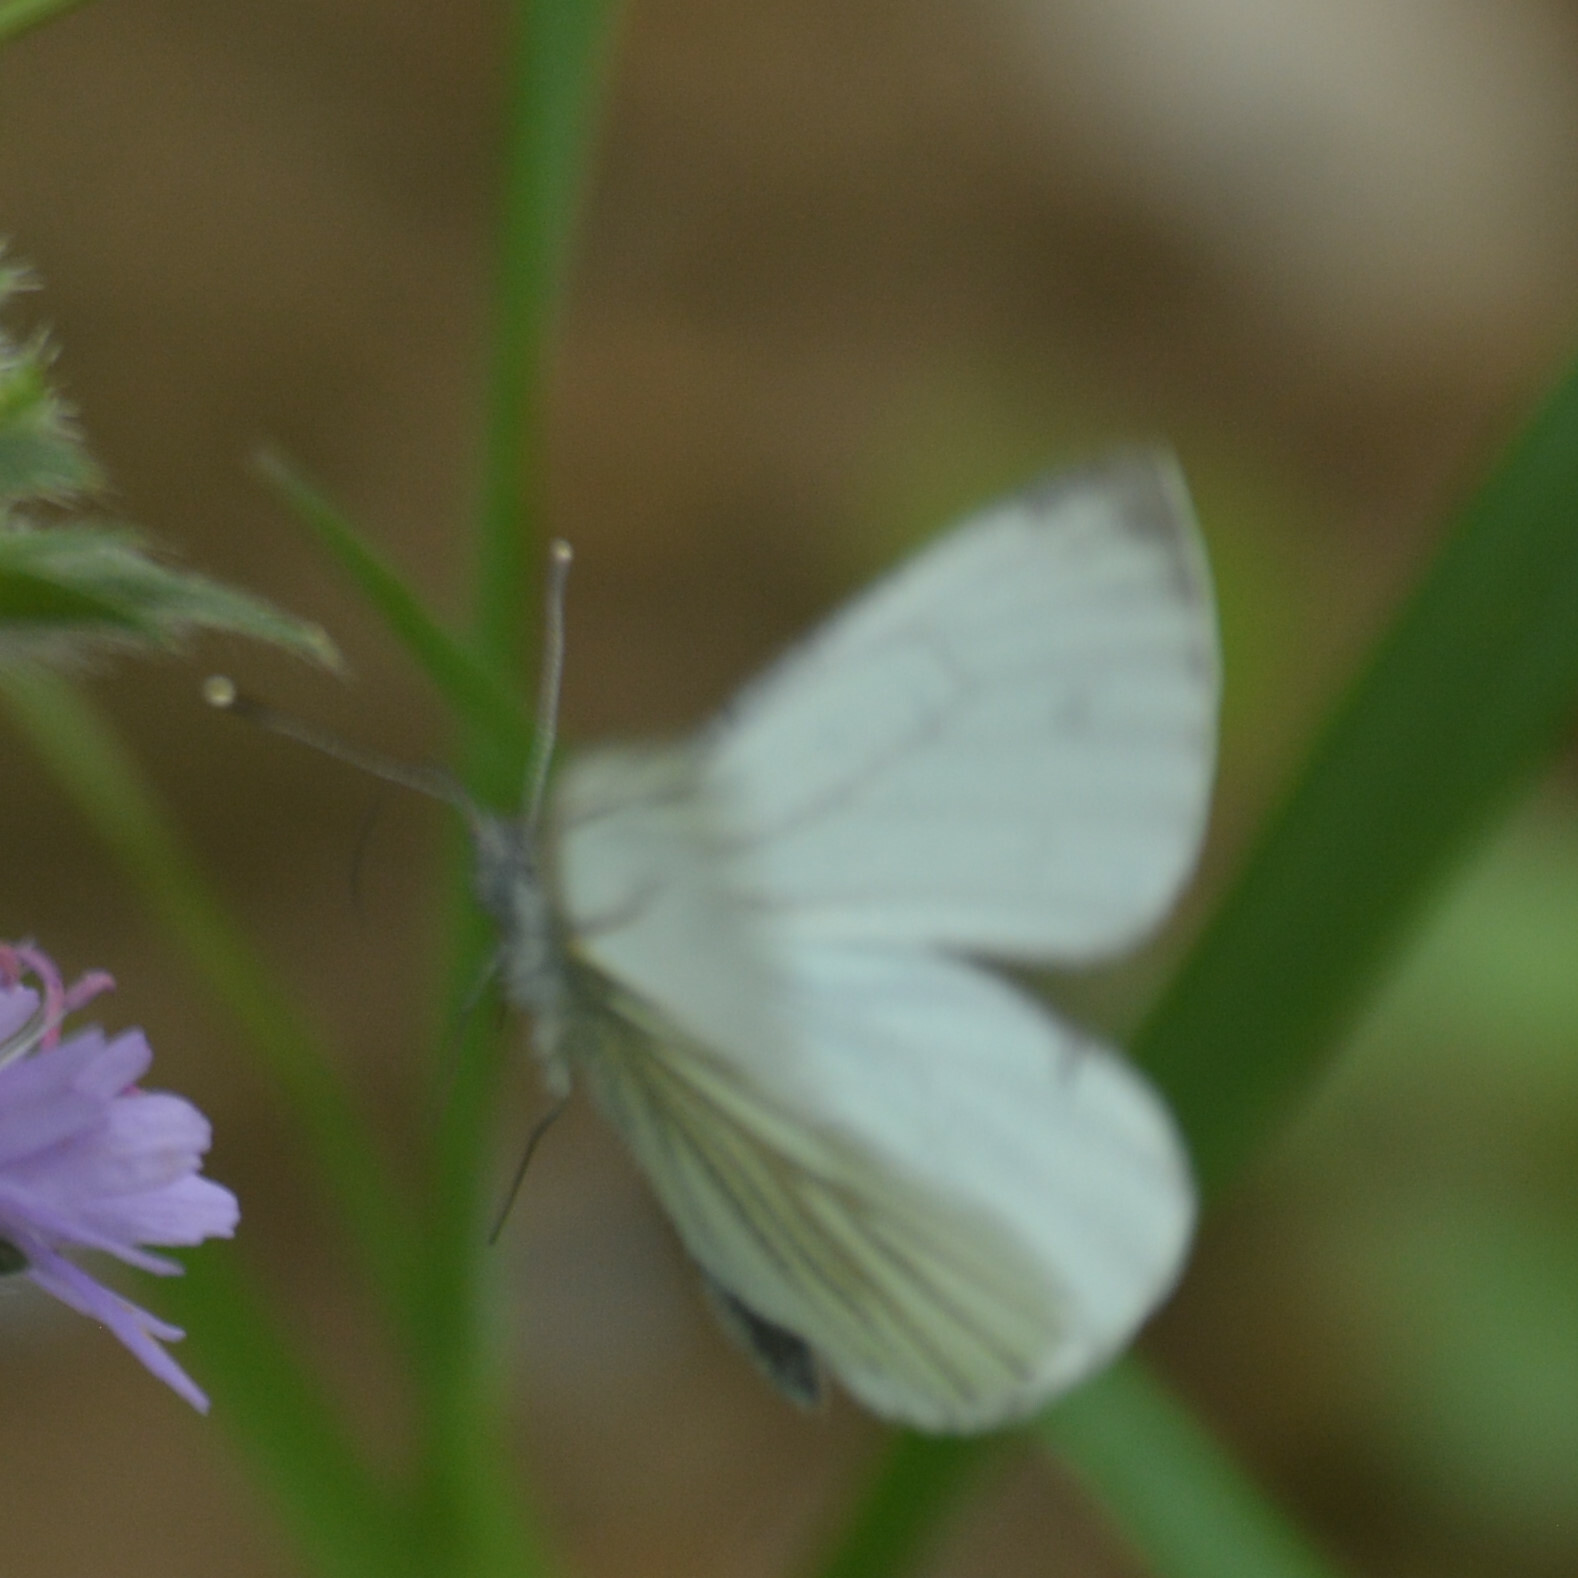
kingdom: Animalia
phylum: Arthropoda
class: Insecta
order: Lepidoptera
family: Pieridae
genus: Pieris
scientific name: Pieris napi
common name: Green-veined white
